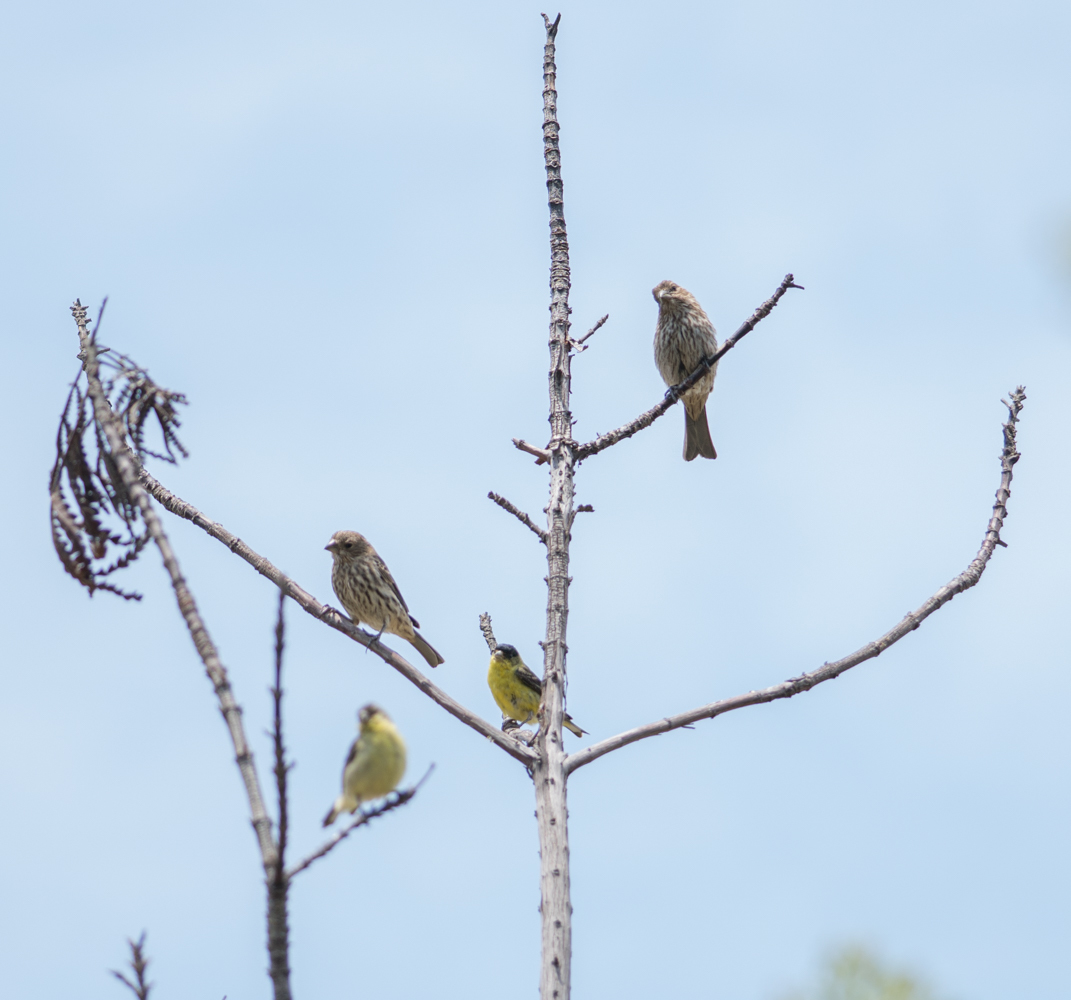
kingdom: Animalia
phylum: Chordata
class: Aves
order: Passeriformes
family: Fringillidae
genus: Haemorhous
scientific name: Haemorhous mexicanus
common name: House finch
